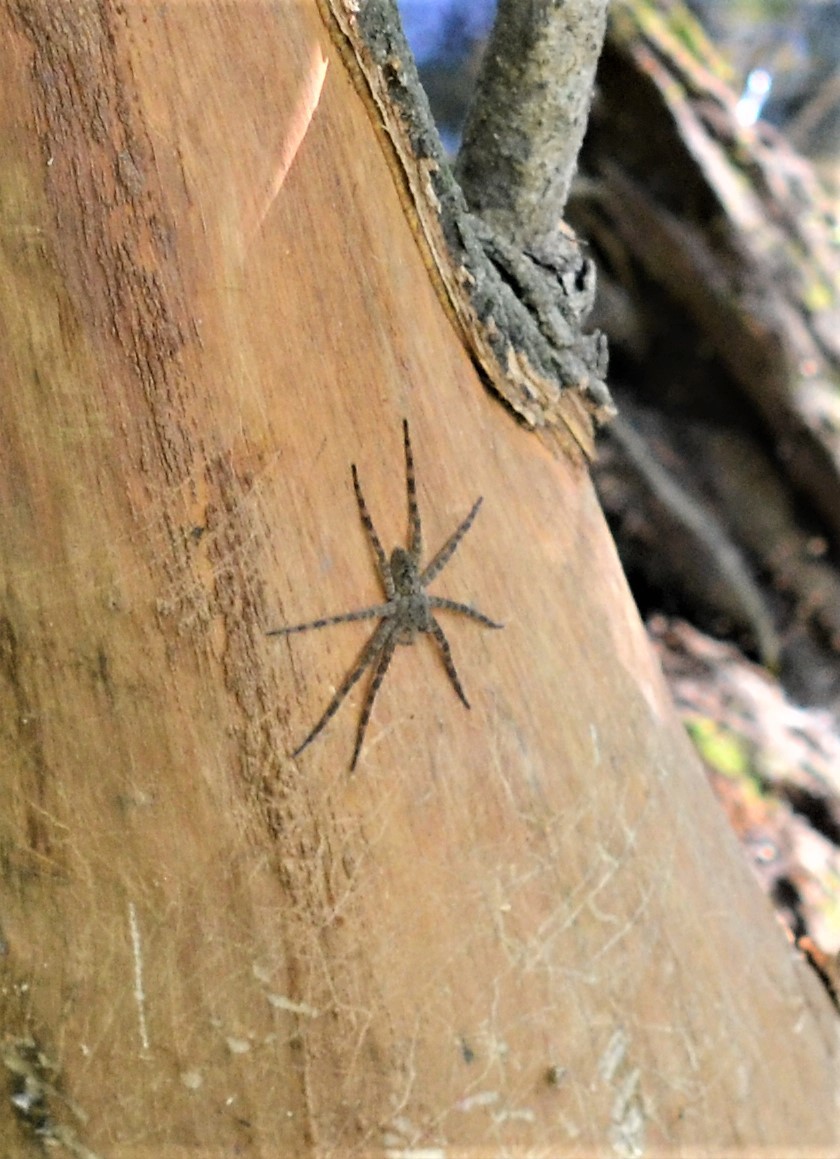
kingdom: Animalia
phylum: Arthropoda
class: Arachnida
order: Araneae
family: Pisauridae
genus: Dolomedes
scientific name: Dolomedes albineus
